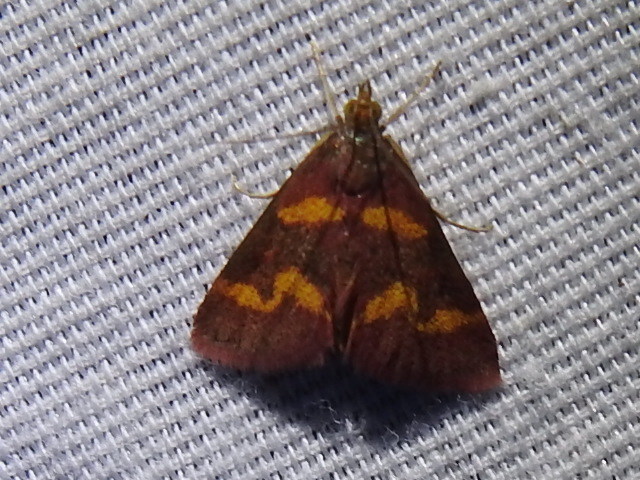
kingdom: Animalia
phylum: Arthropoda
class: Insecta
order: Lepidoptera
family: Crambidae
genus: Pyrausta
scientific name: Pyrausta tyralis
